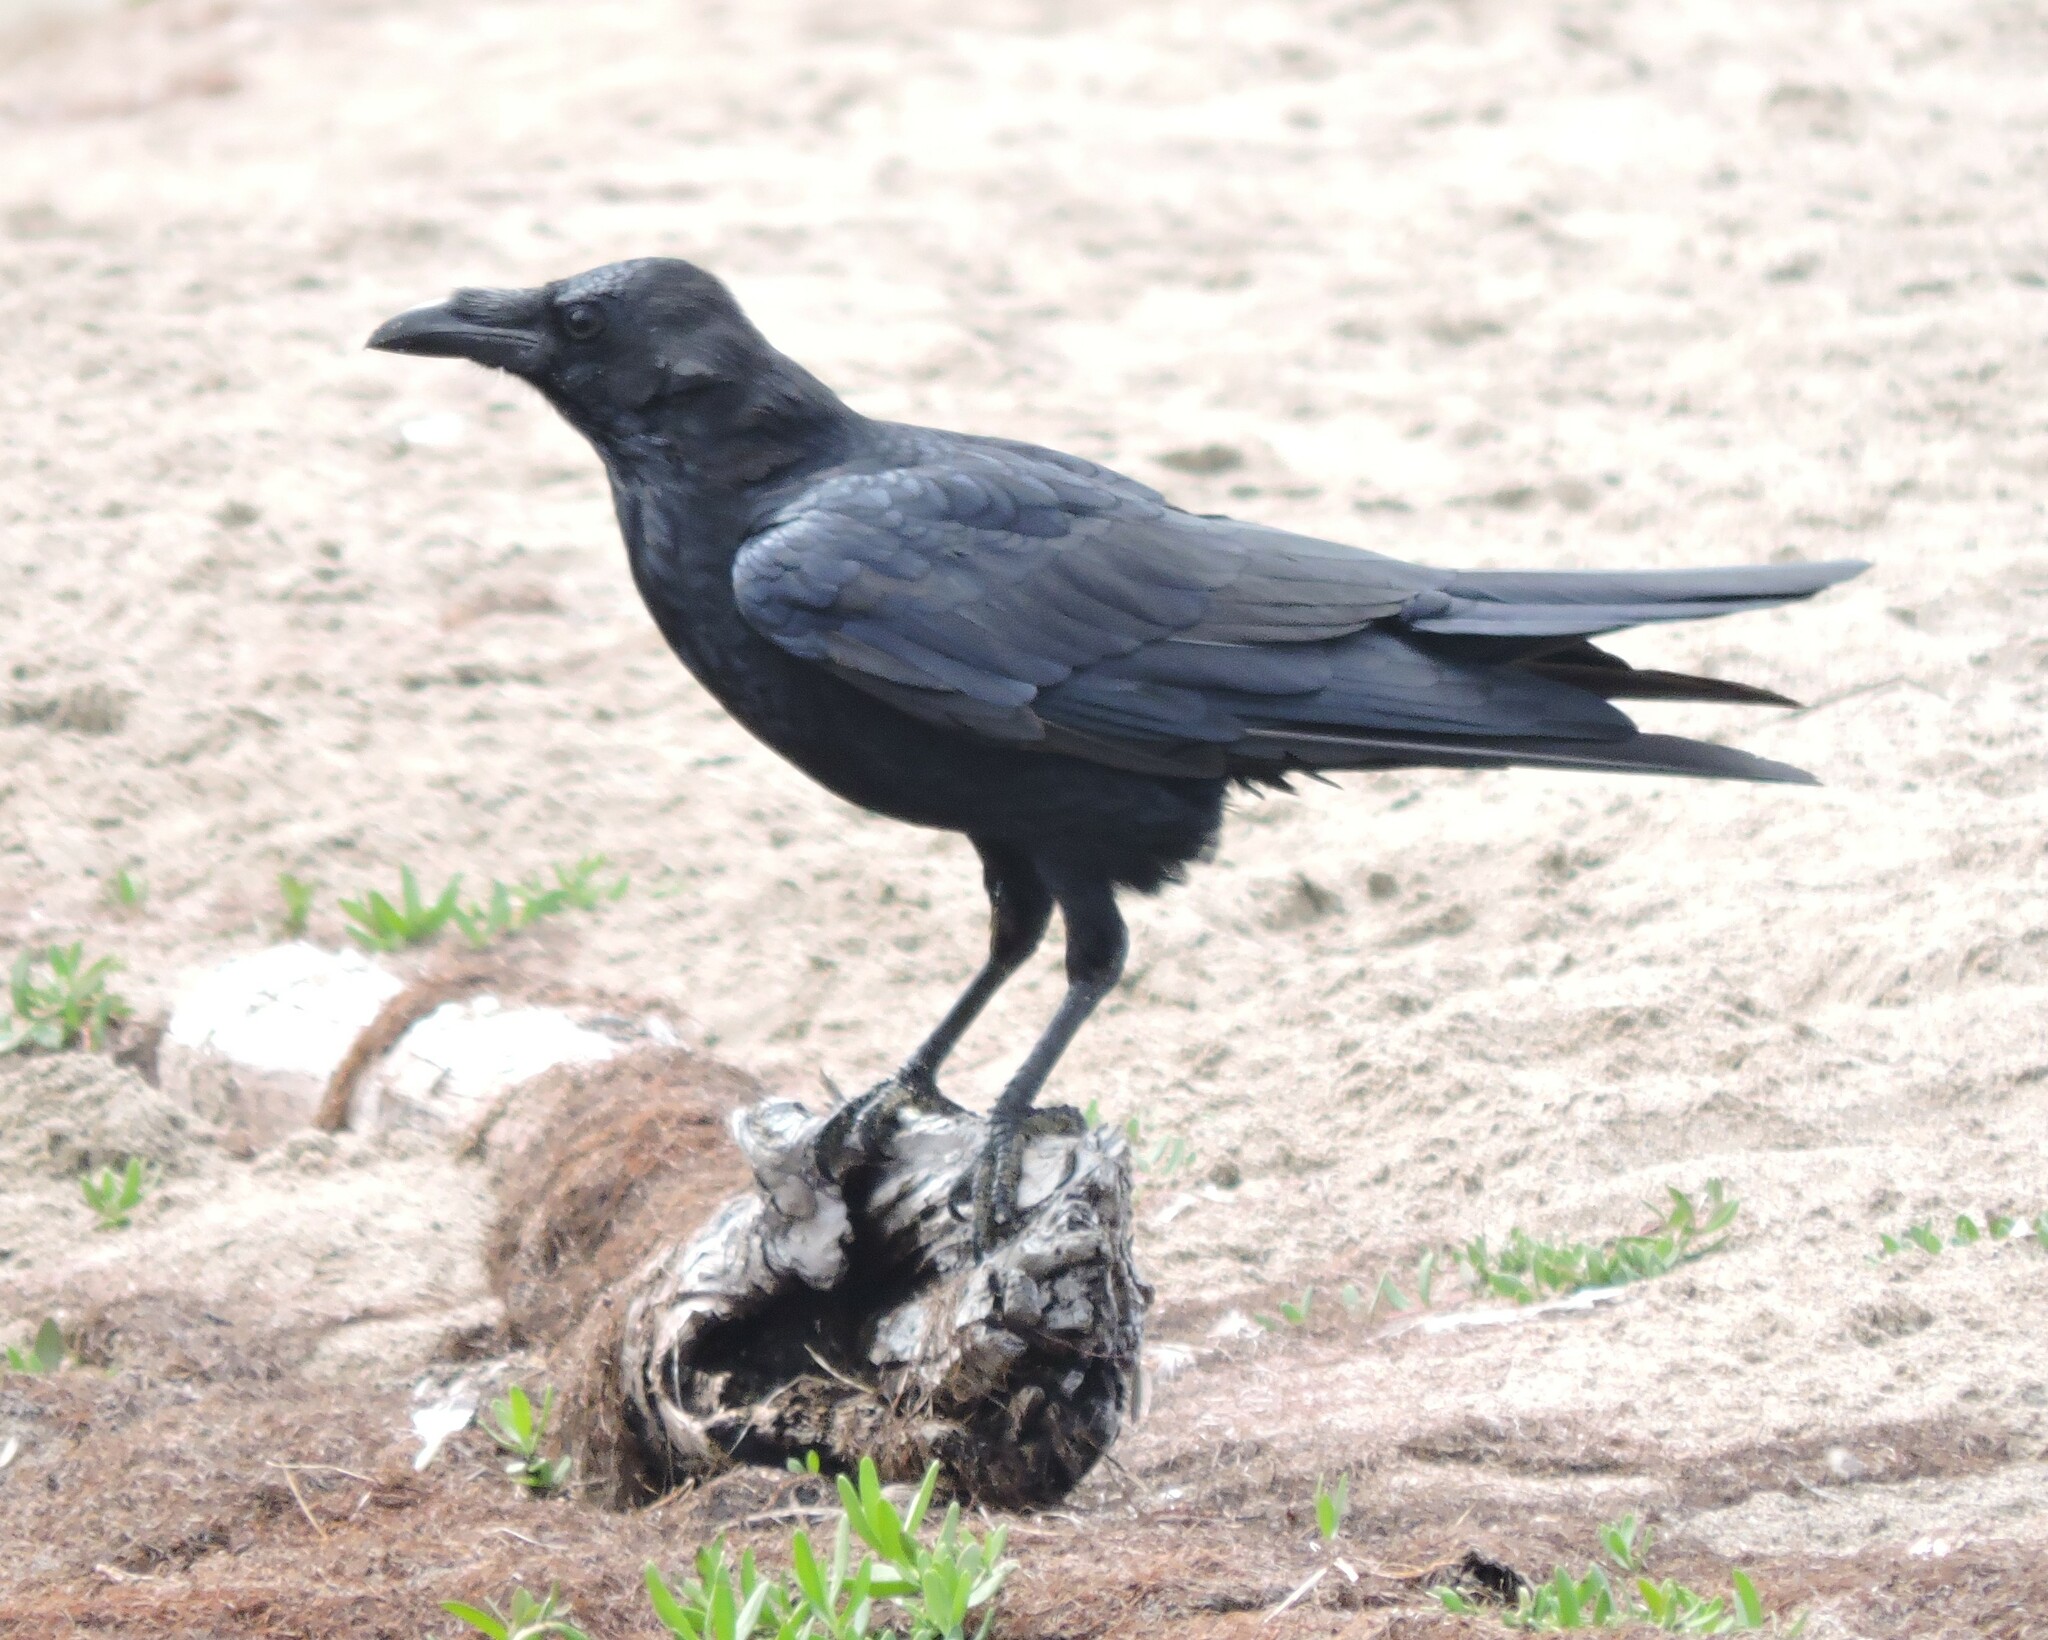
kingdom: Animalia
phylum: Chordata
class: Aves
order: Passeriformes
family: Corvidae
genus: Corvus
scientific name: Corvus corax
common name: Common raven
